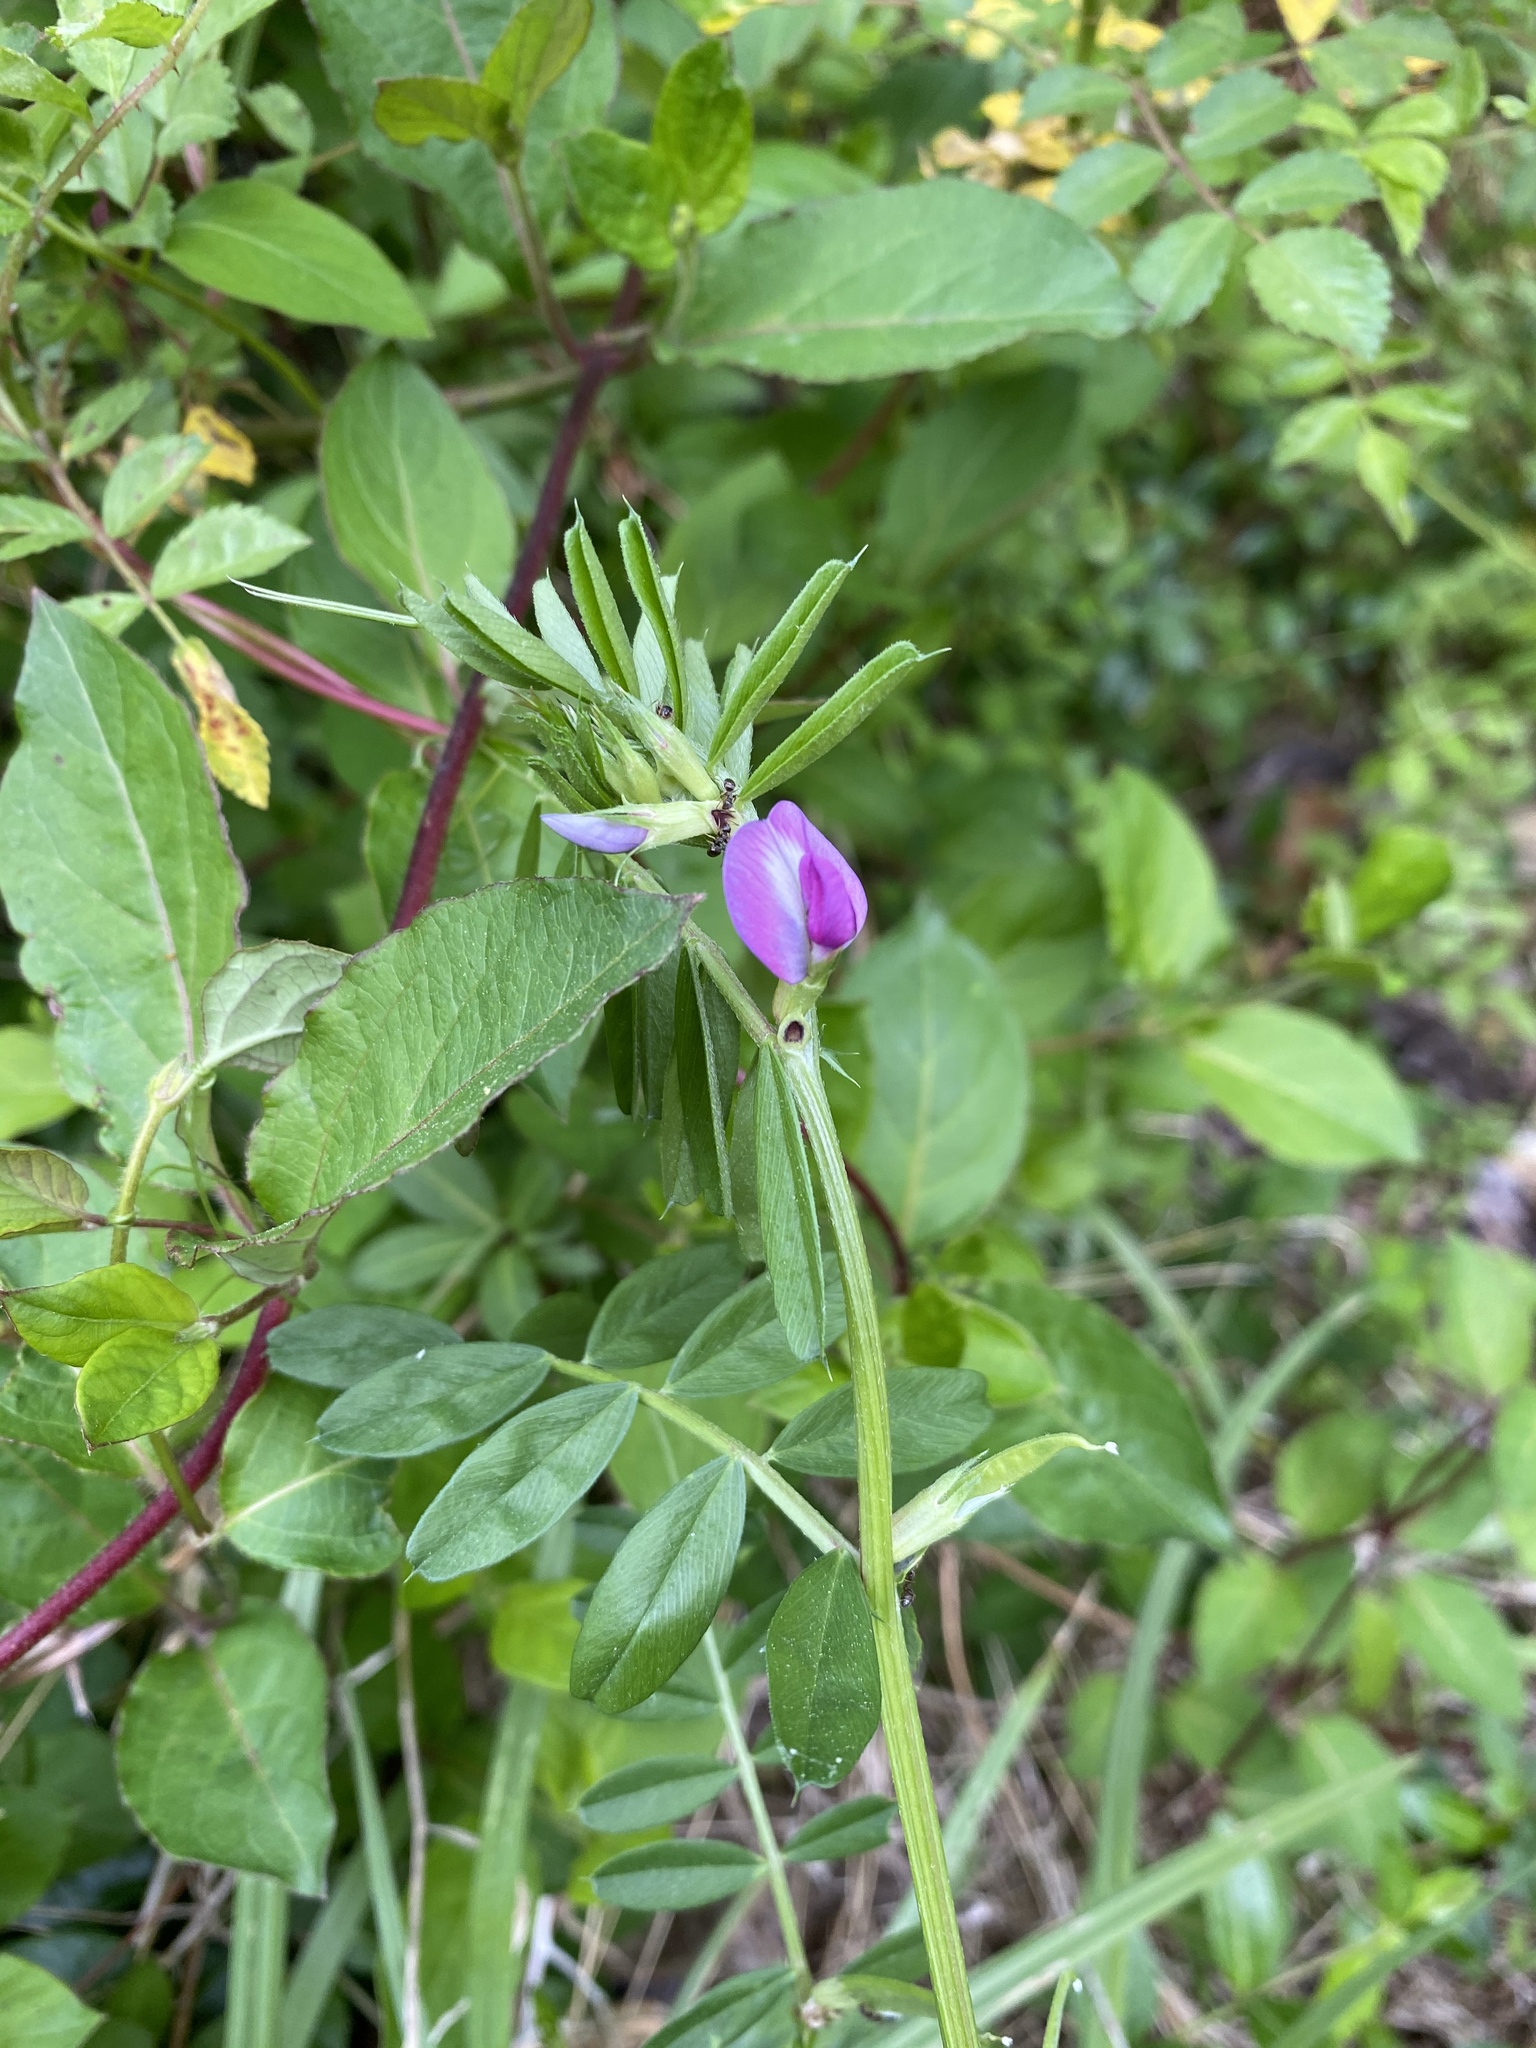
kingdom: Plantae
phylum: Tracheophyta
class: Magnoliopsida
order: Fabales
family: Fabaceae
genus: Vicia
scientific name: Vicia sativa
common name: Garden vetch
